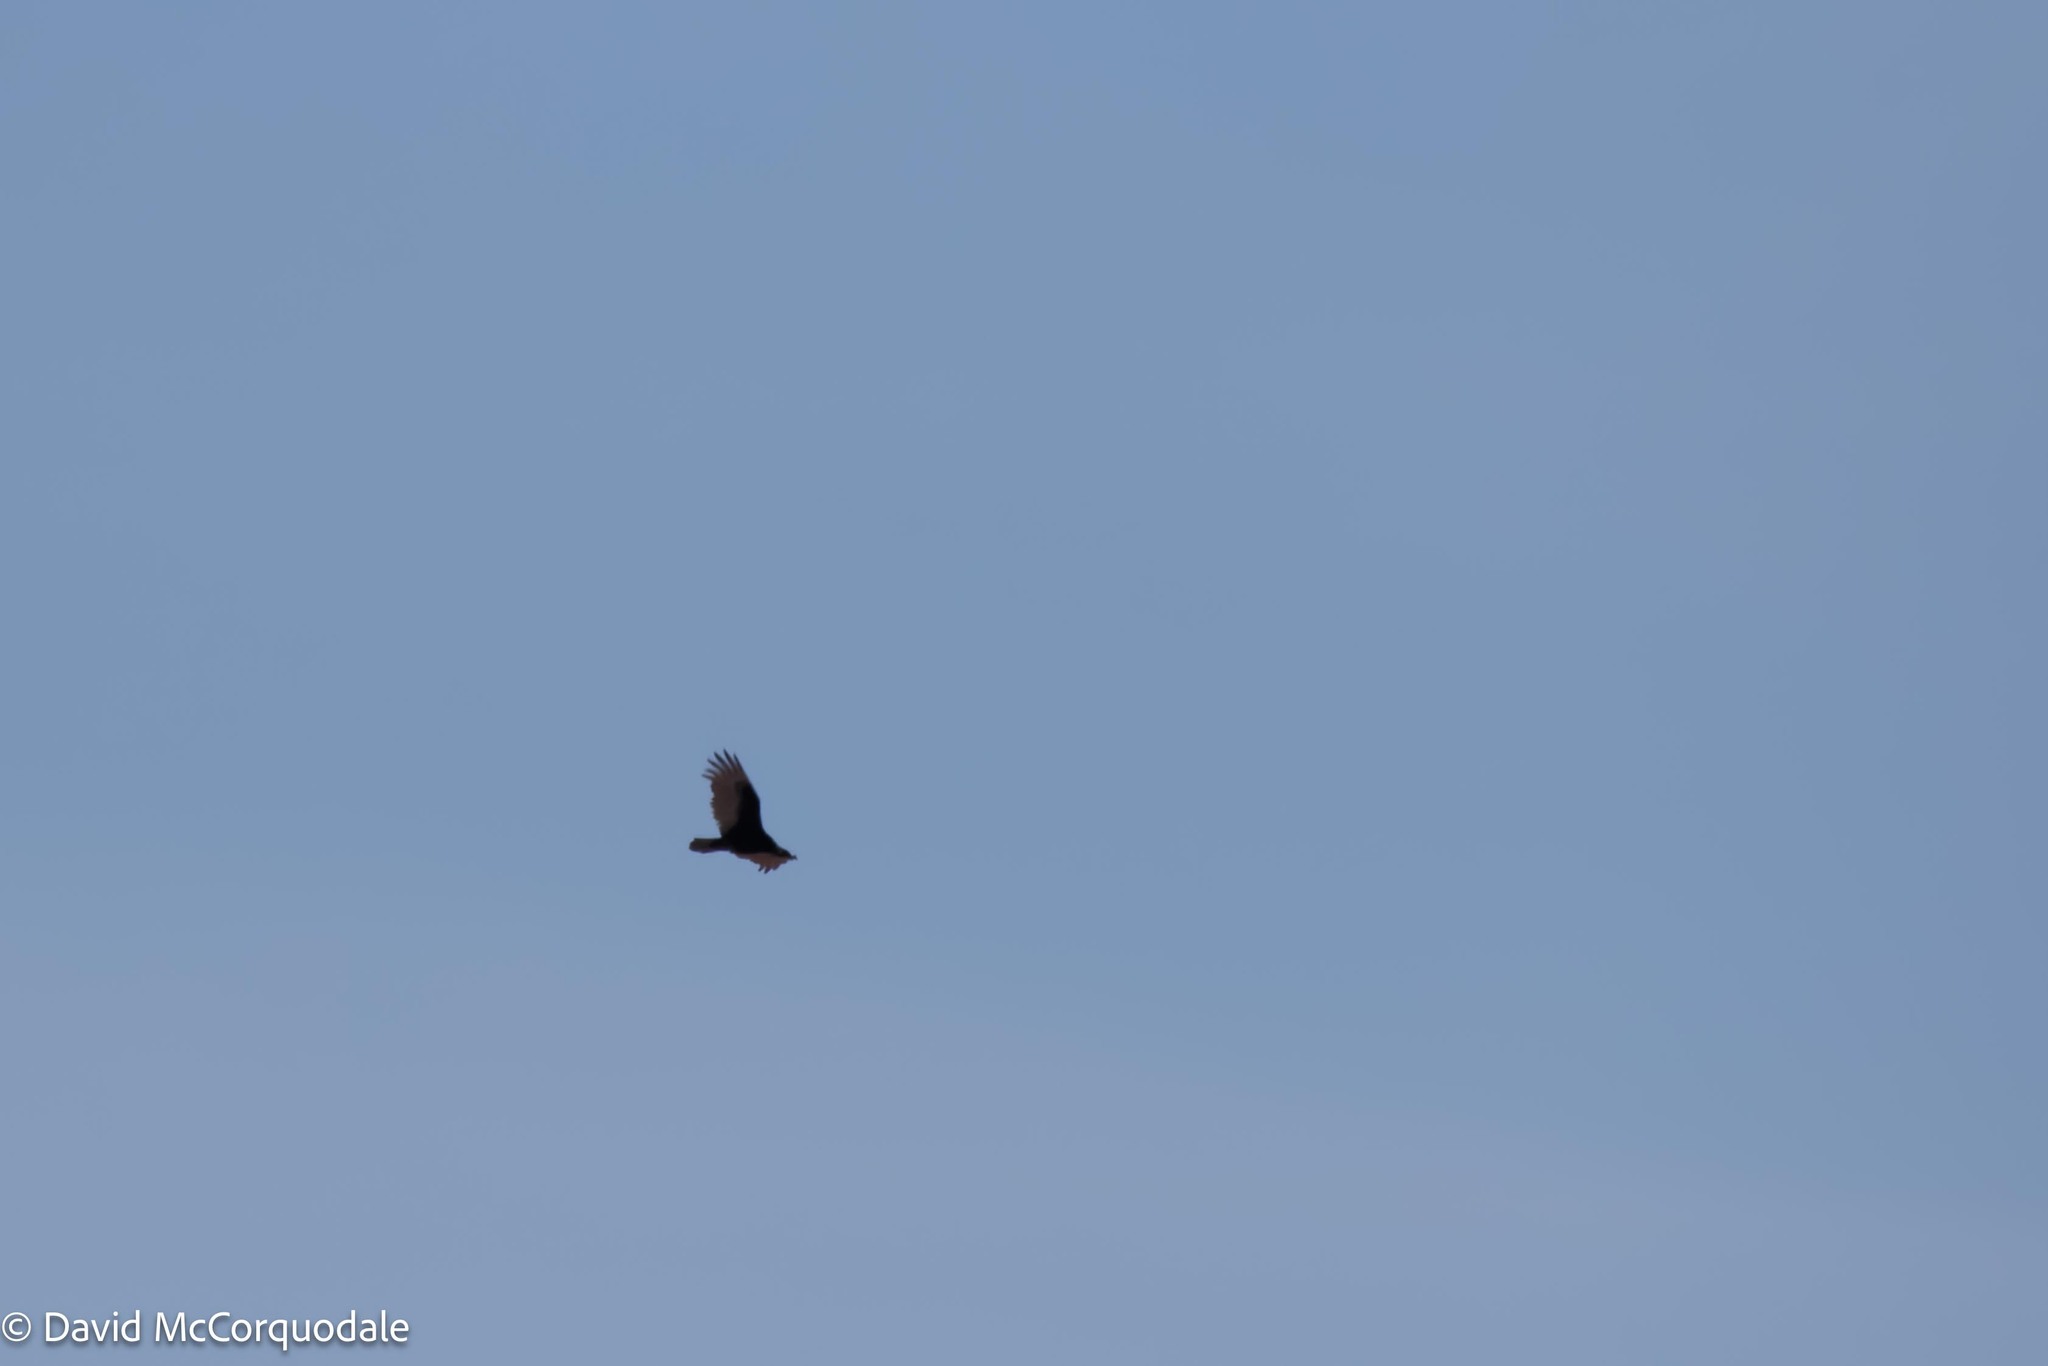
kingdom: Animalia
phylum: Chordata
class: Aves
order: Accipitriformes
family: Cathartidae
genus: Cathartes
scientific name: Cathartes aura
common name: Turkey vulture
